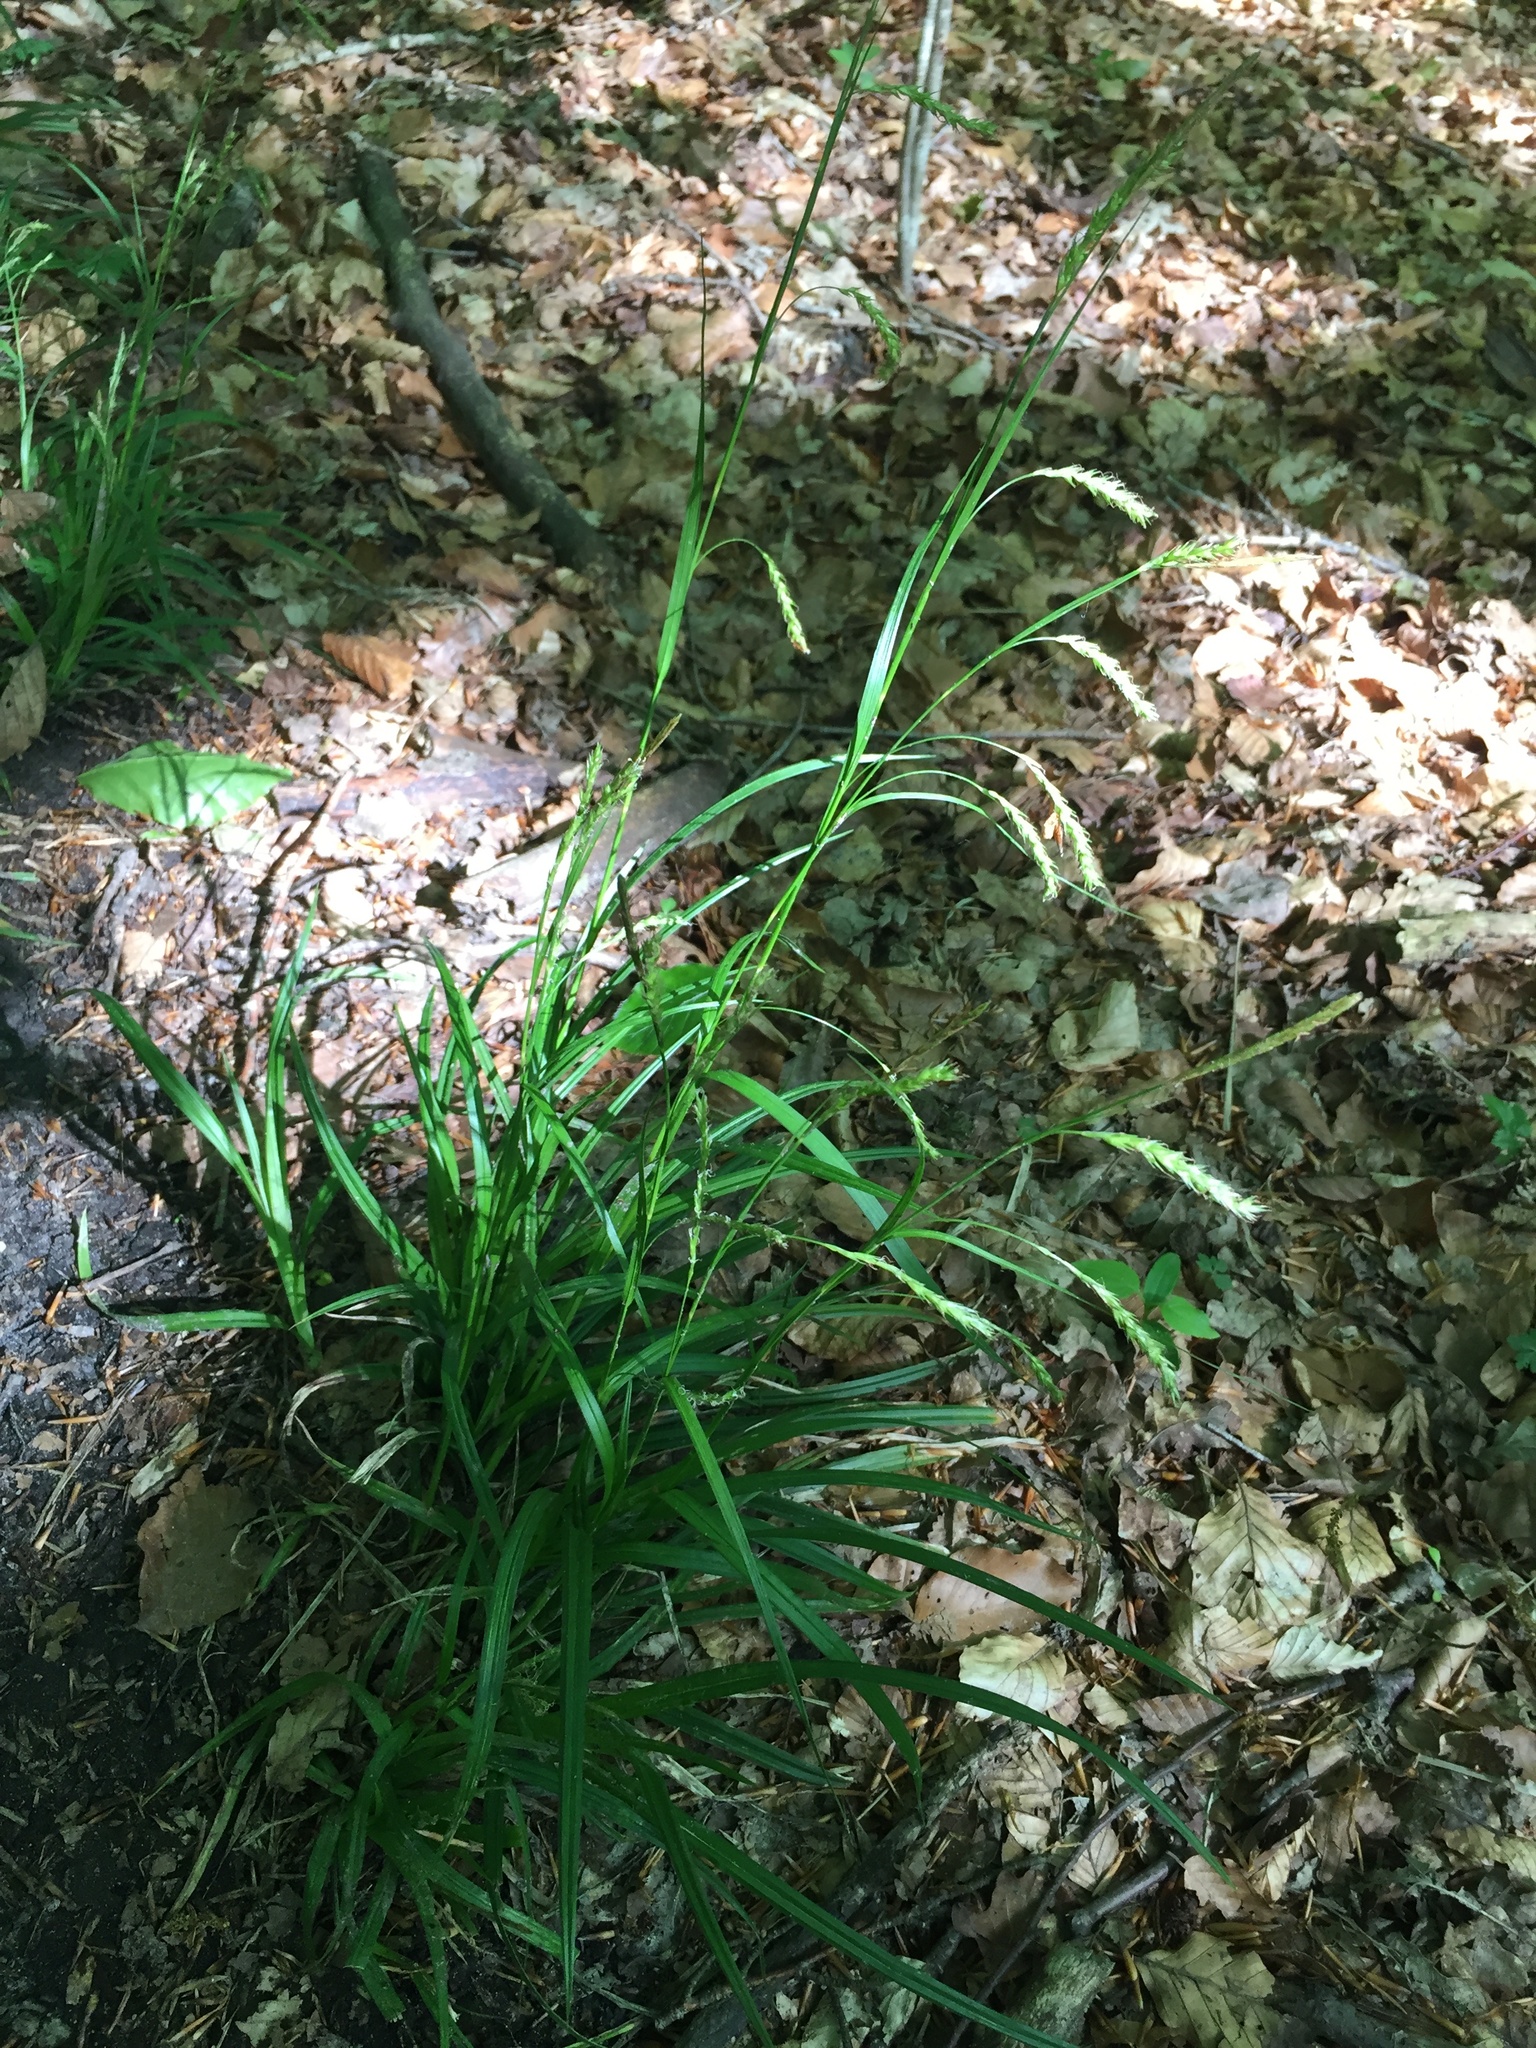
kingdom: Plantae
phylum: Tracheophyta
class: Liliopsida
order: Poales
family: Cyperaceae
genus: Carex
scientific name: Carex sylvatica
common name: Wood-sedge
